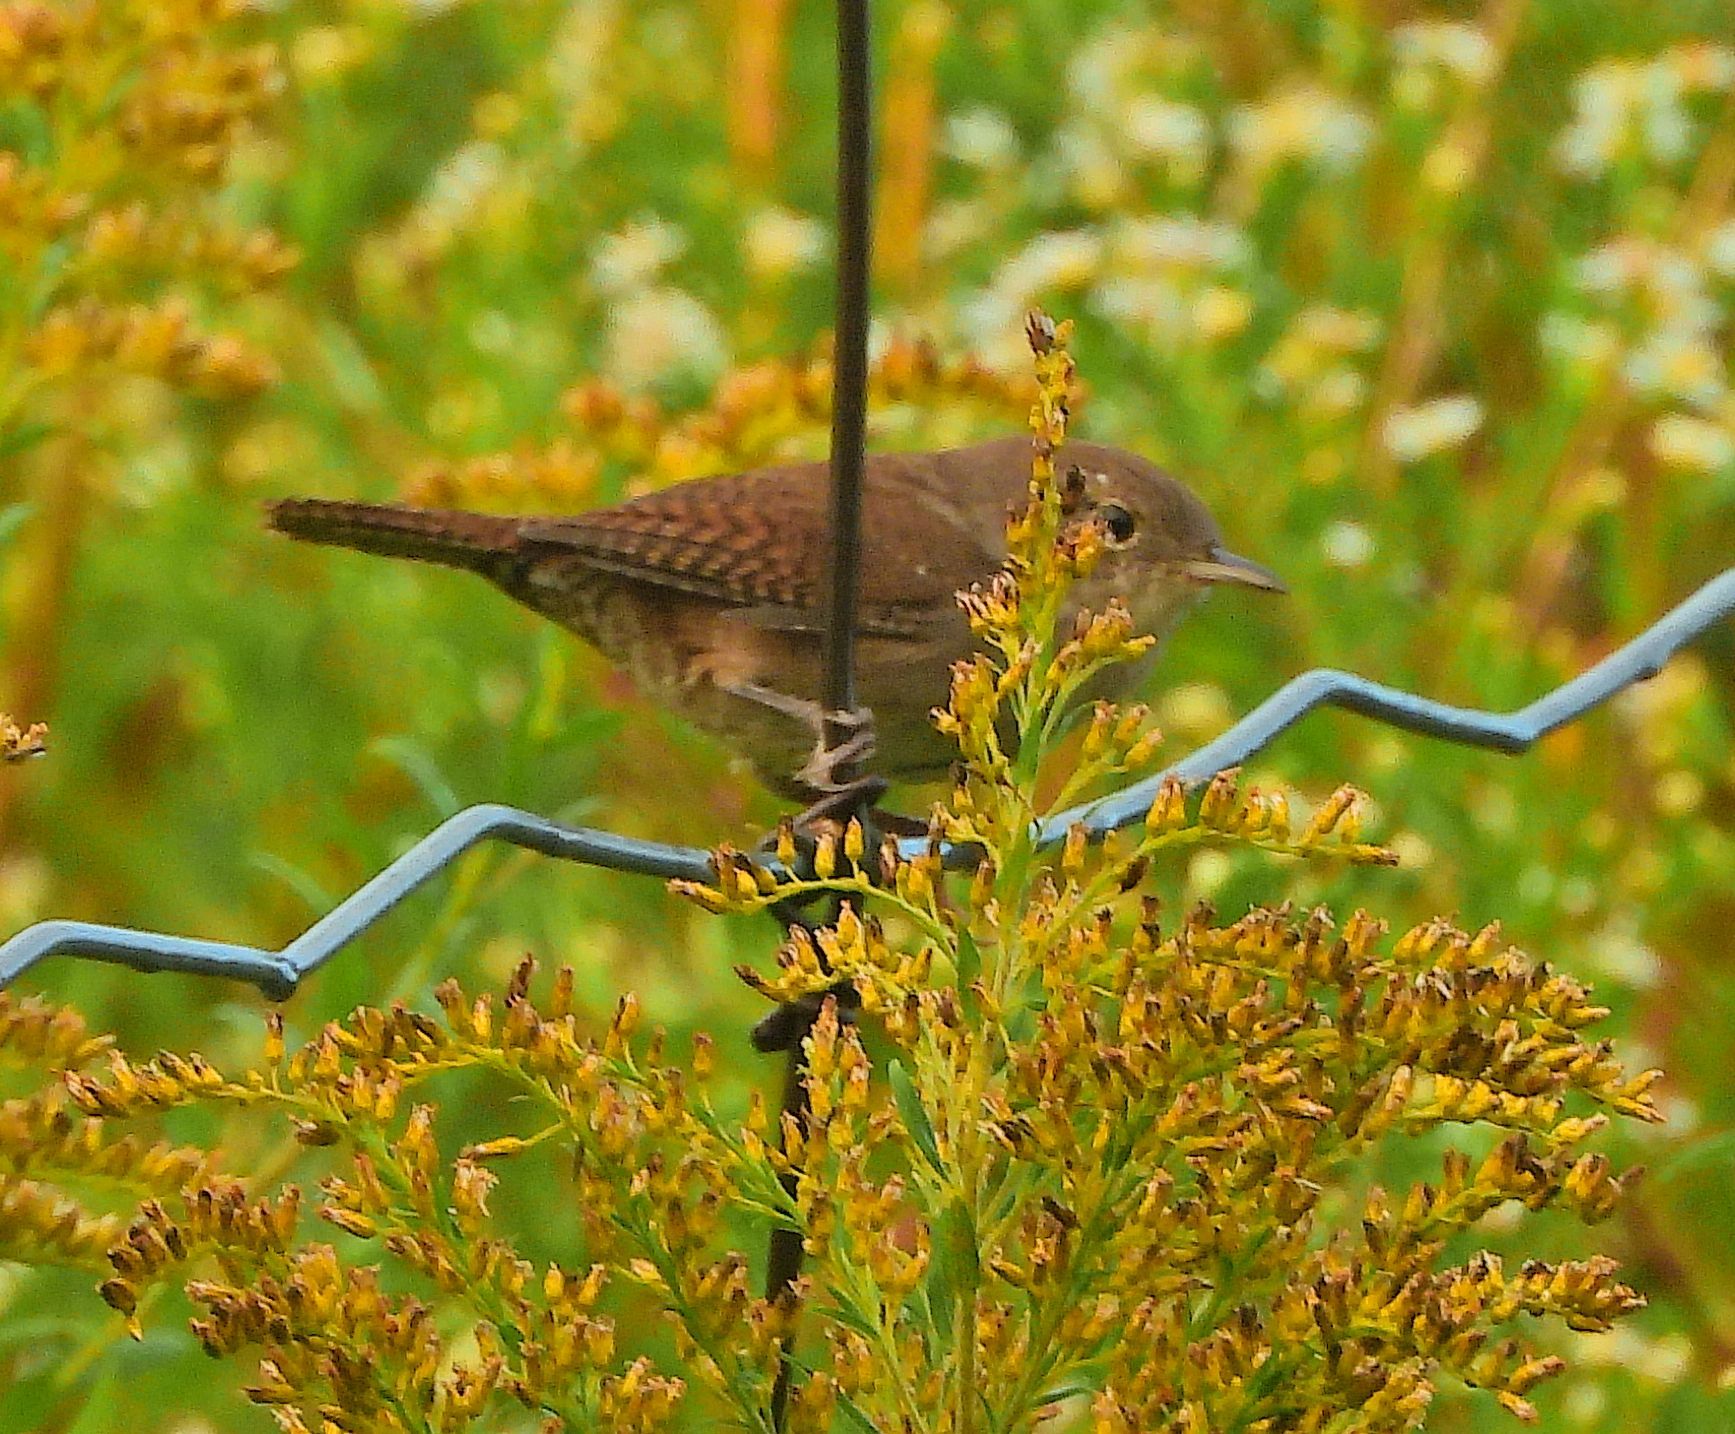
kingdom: Animalia
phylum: Chordata
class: Aves
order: Passeriformes
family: Troglodytidae
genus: Troglodytes
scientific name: Troglodytes aedon
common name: House wren
